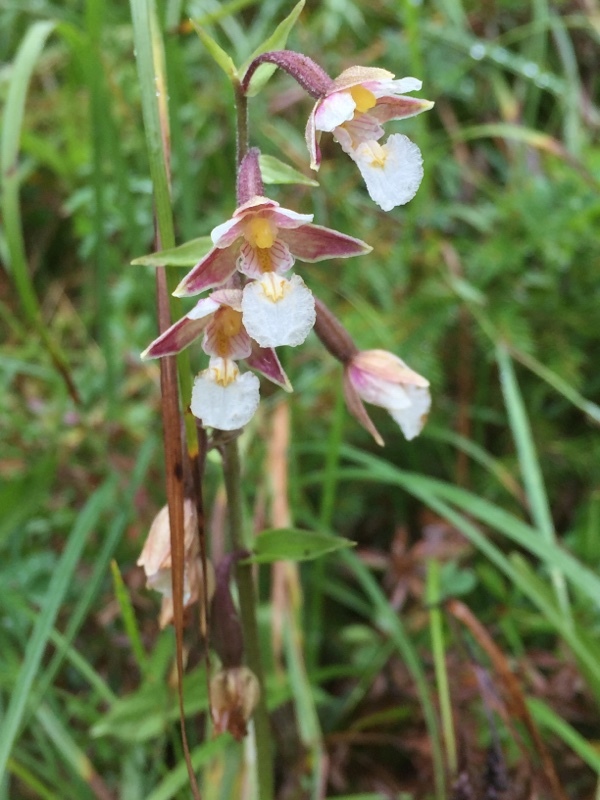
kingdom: Plantae
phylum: Tracheophyta
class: Liliopsida
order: Asparagales
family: Orchidaceae
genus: Epipactis
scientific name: Epipactis palustris
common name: Marsh helleborine
